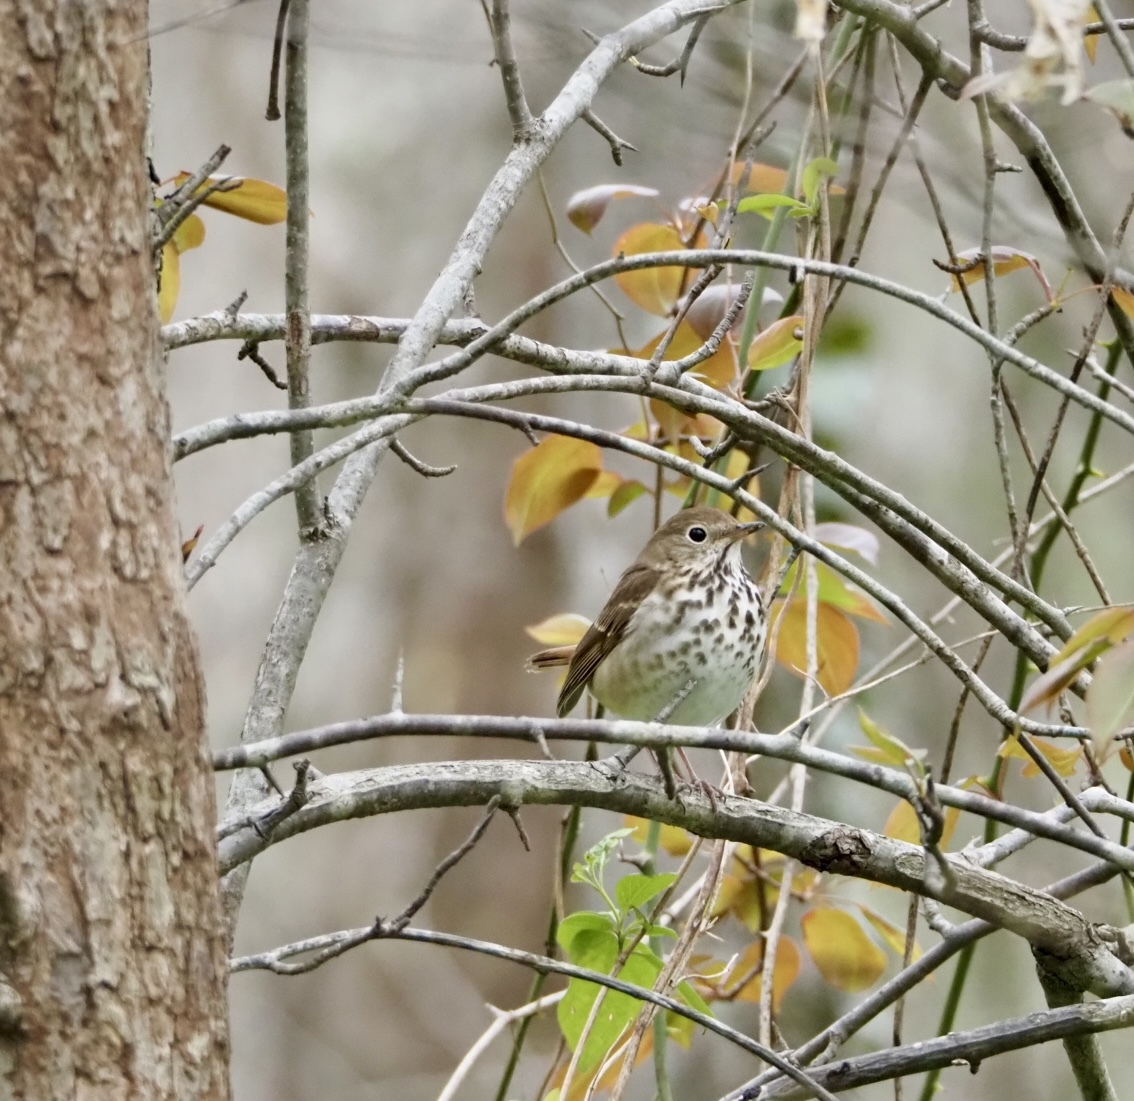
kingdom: Animalia
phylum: Chordata
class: Aves
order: Passeriformes
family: Turdidae
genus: Catharus
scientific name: Catharus guttatus
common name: Hermit thrush
